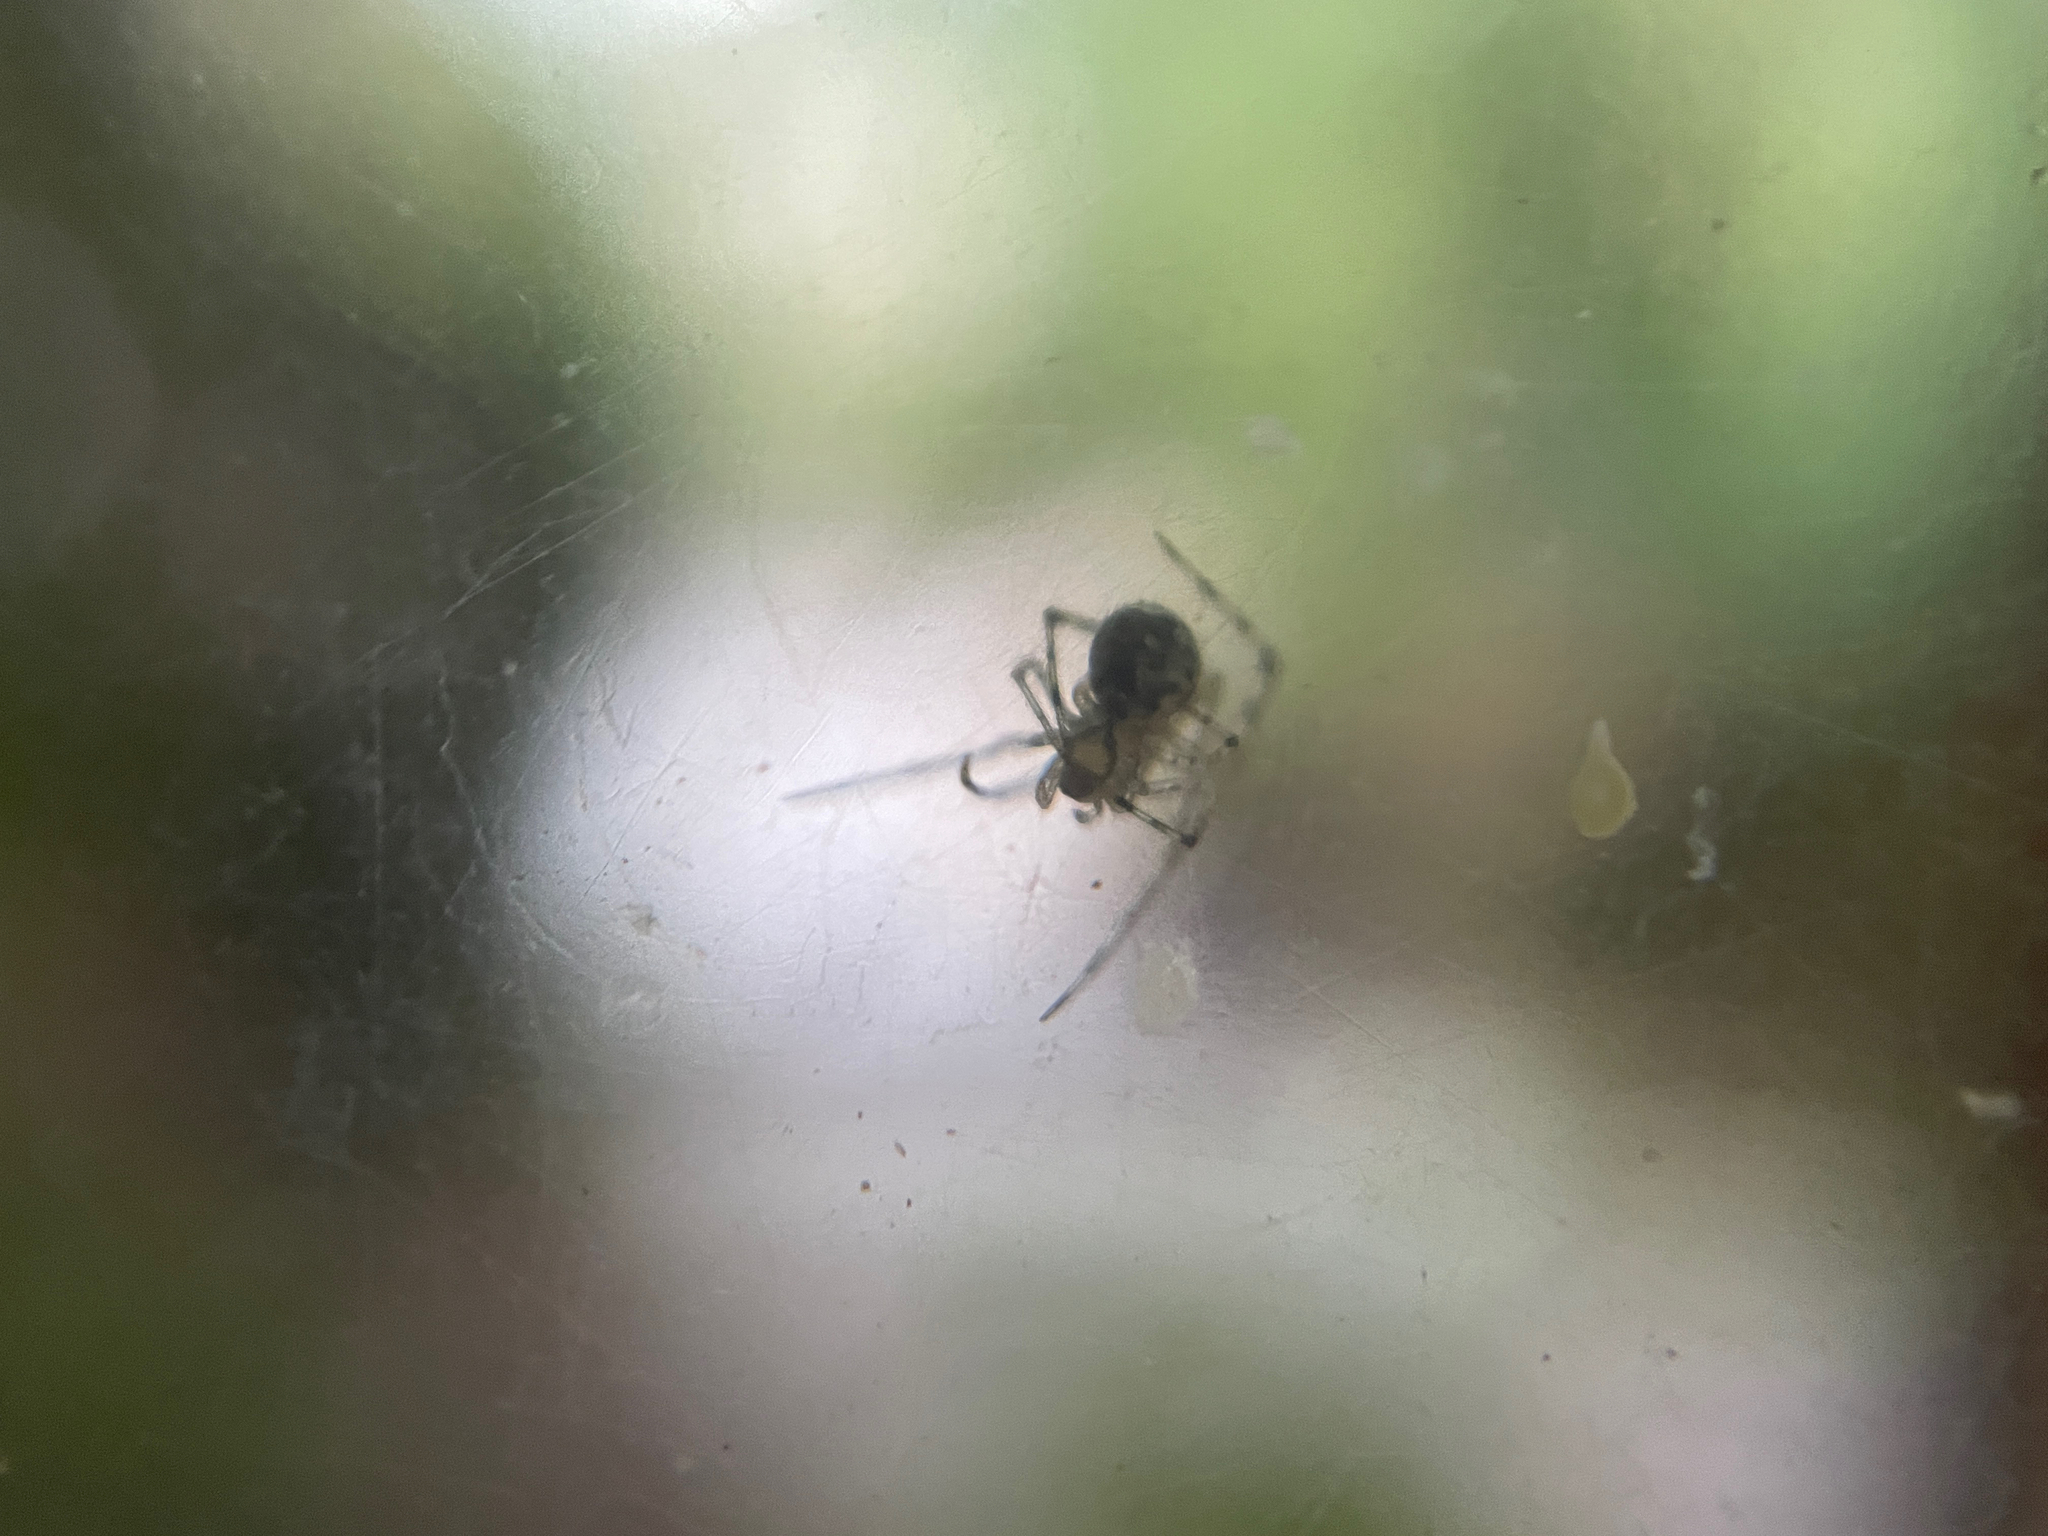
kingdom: Animalia
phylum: Arthropoda
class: Arachnida
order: Araneae
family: Theridiidae
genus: Cryptachaea
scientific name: Cryptachaea gigantipes
